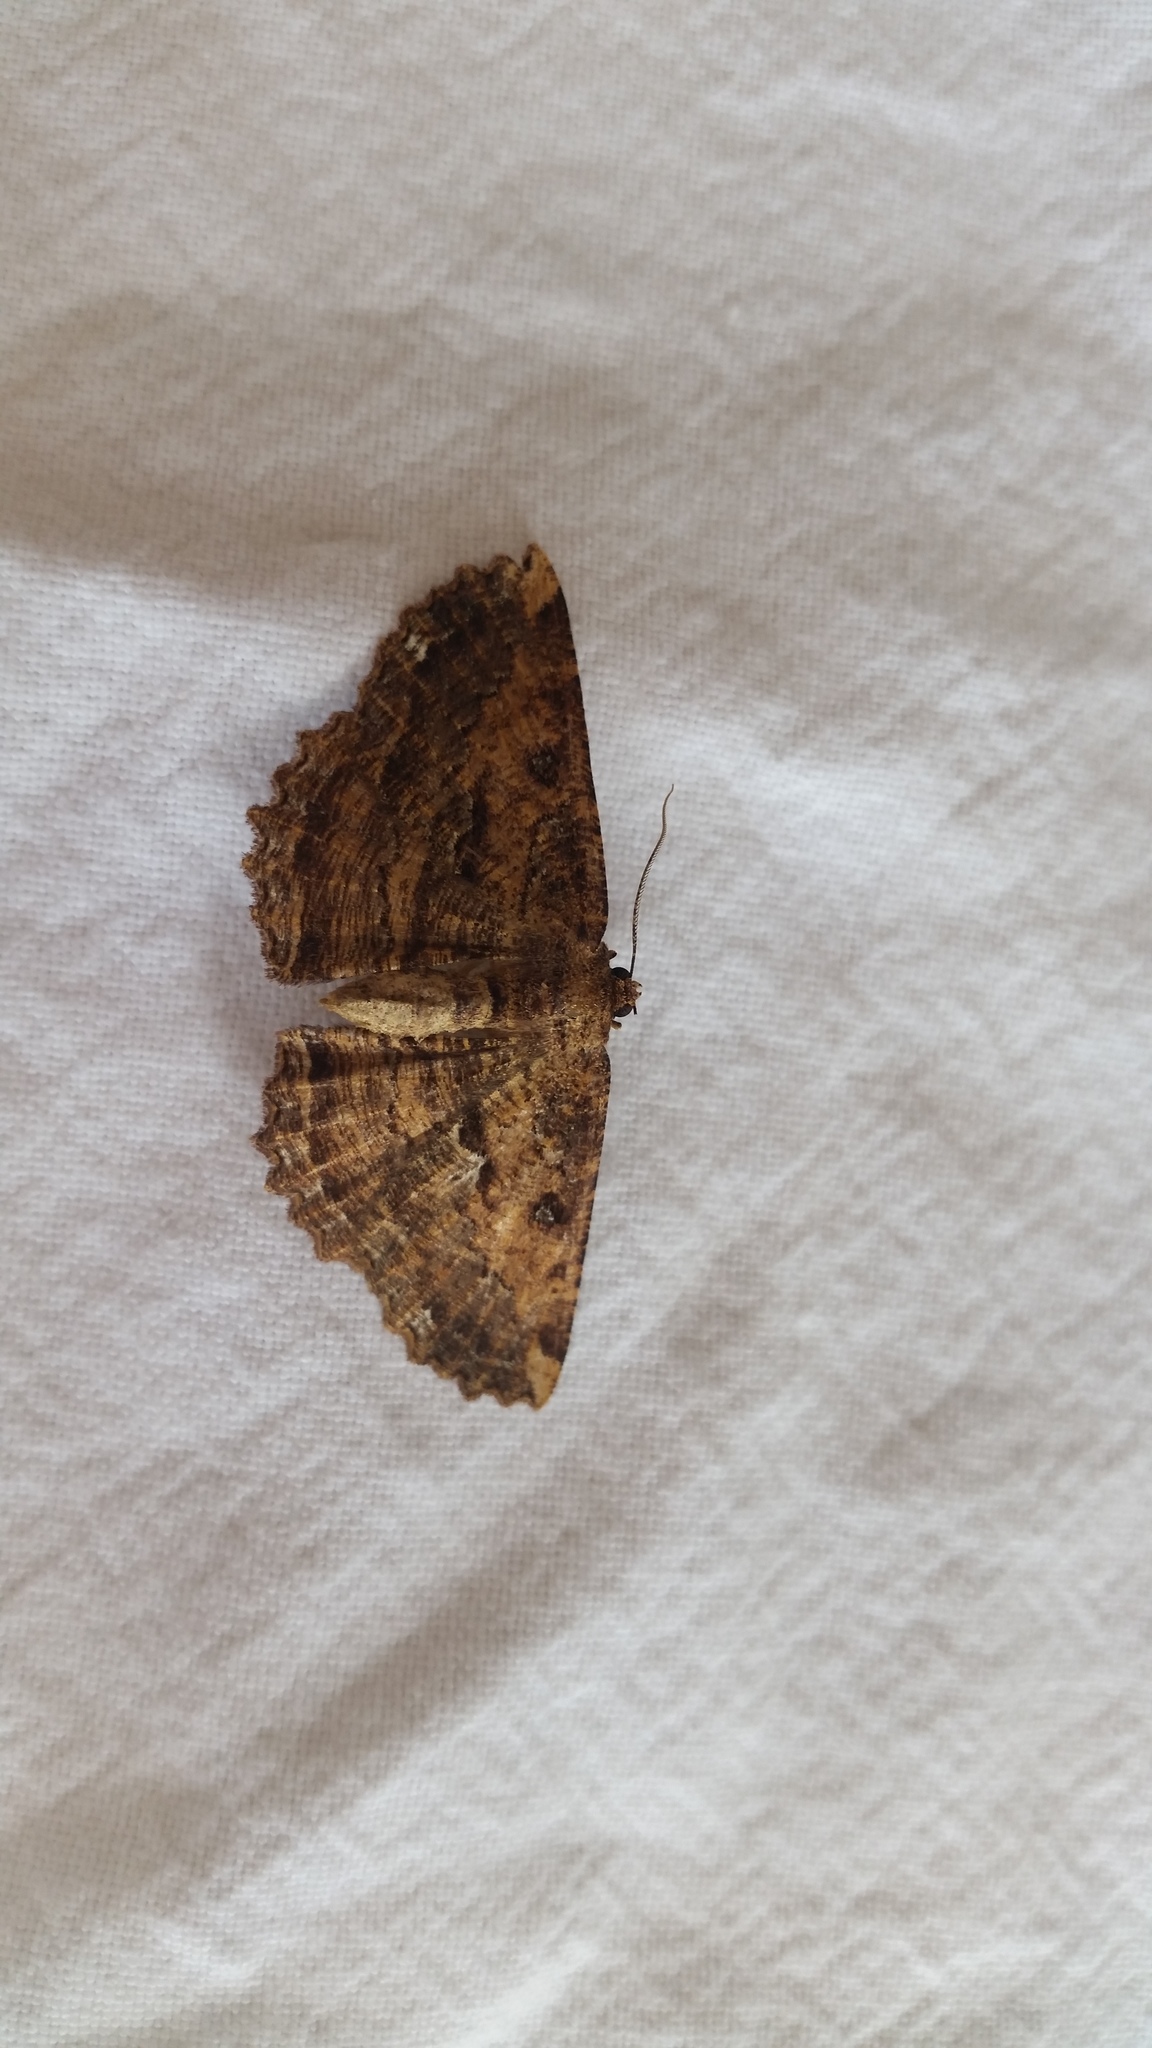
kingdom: Animalia
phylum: Arthropoda
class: Insecta
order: Lepidoptera
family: Geometridae
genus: Gellonia
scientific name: Gellonia dejectaria
